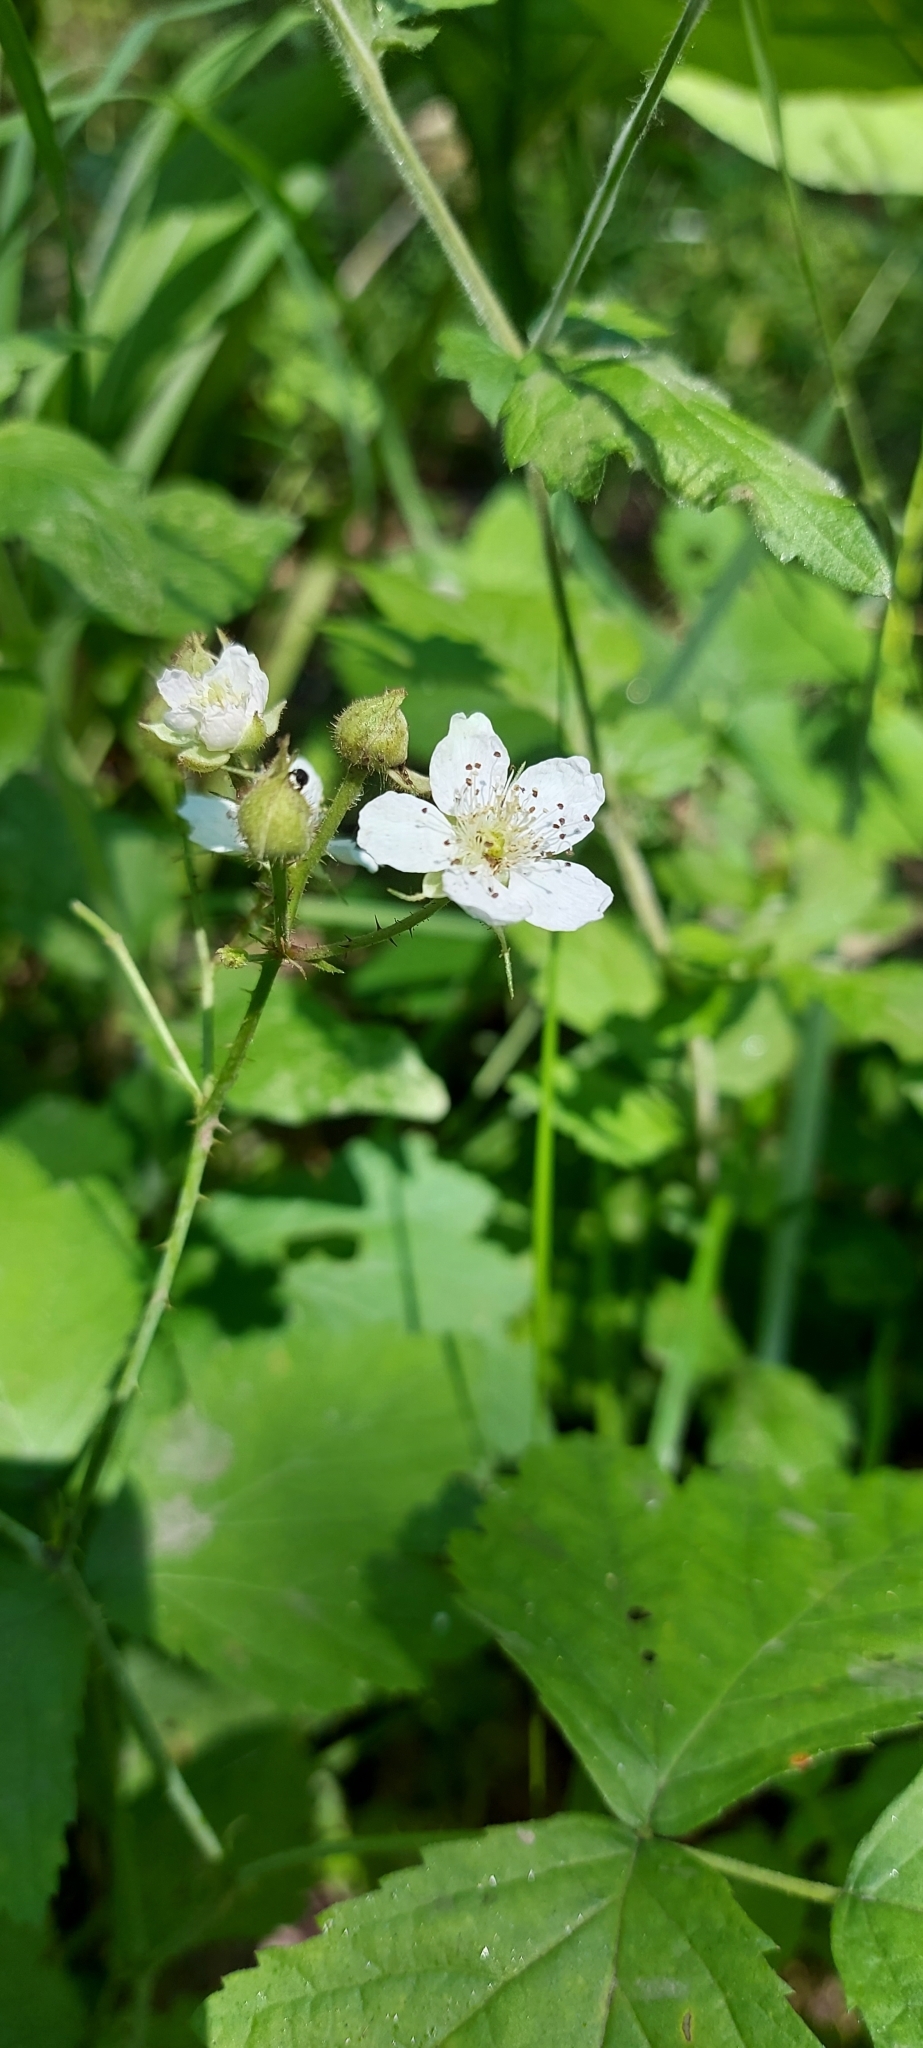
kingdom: Plantae
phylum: Tracheophyta
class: Magnoliopsida
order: Rosales
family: Rosaceae
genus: Rubus
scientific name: Rubus caesius
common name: Dewberry
